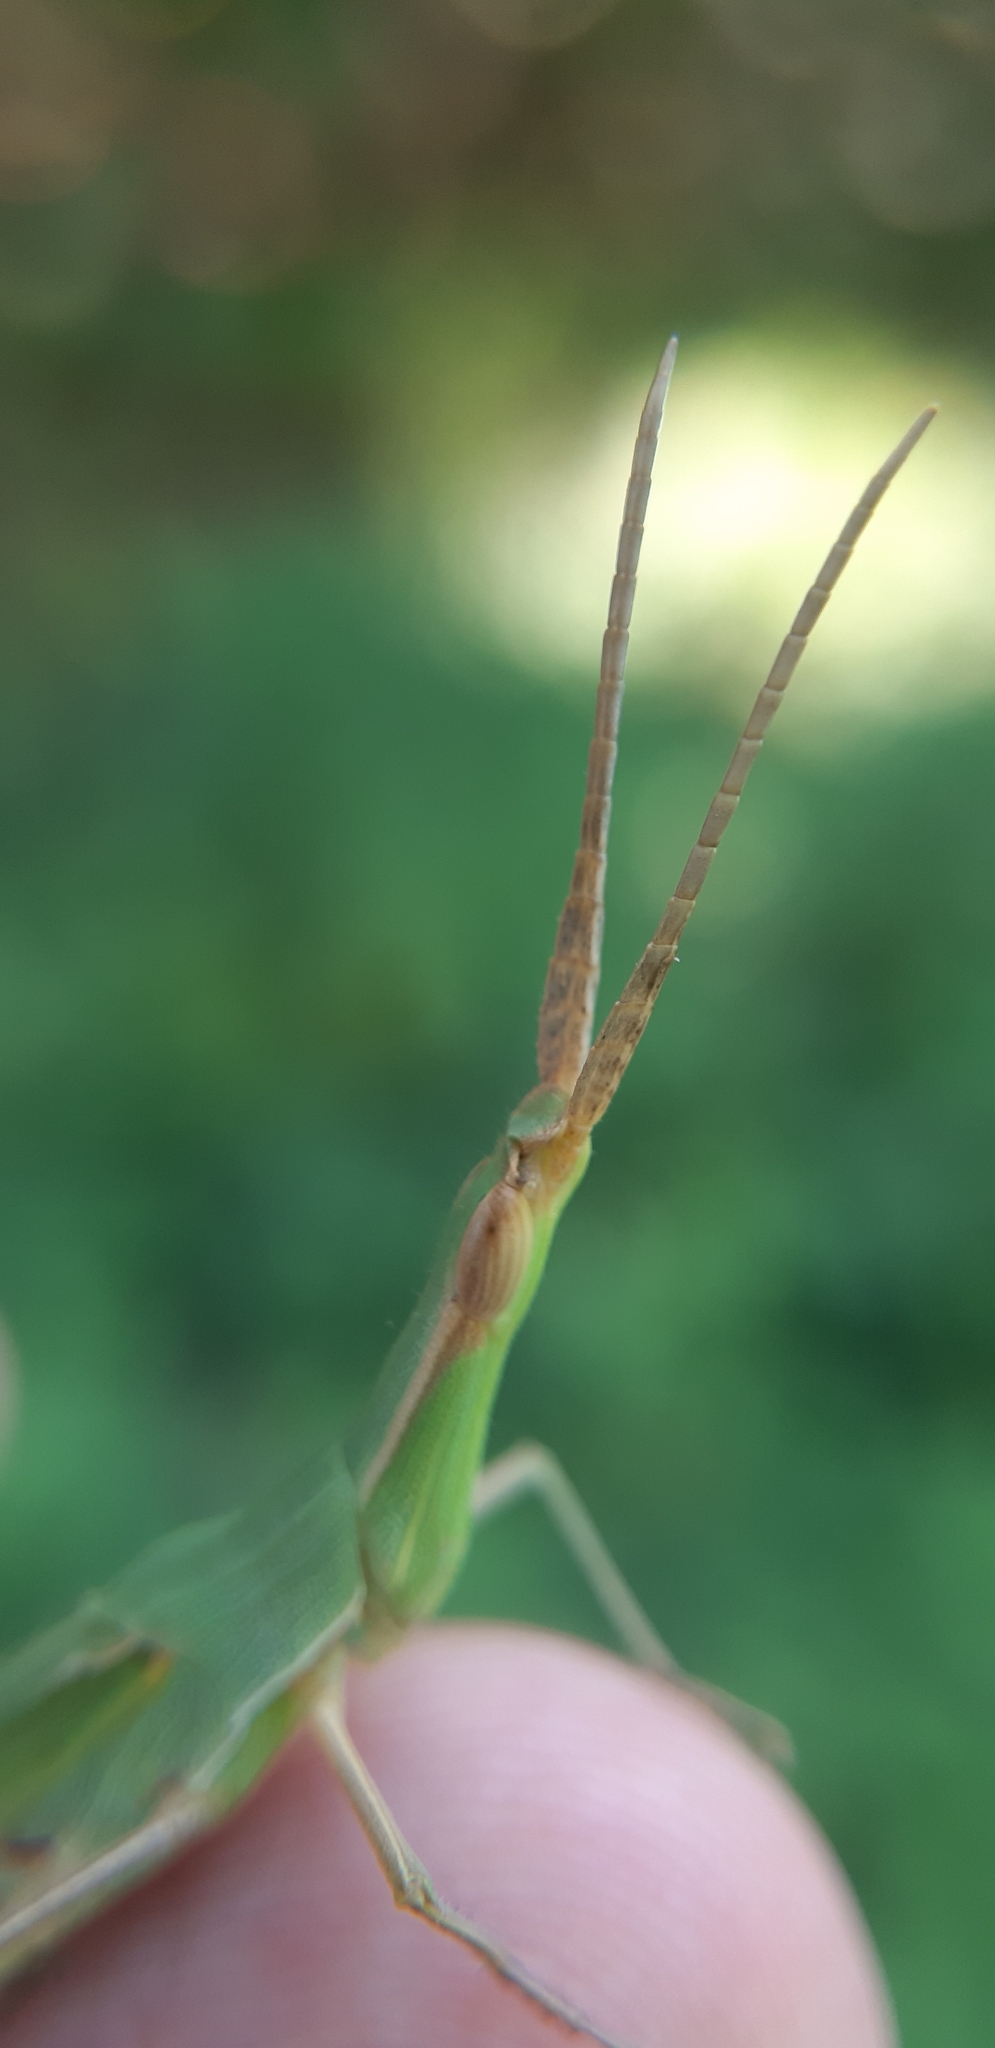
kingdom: Animalia
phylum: Arthropoda
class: Insecta
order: Orthoptera
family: Acrididae
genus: Acrida
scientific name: Acrida ungarica
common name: Common cone-headed grasshopper
